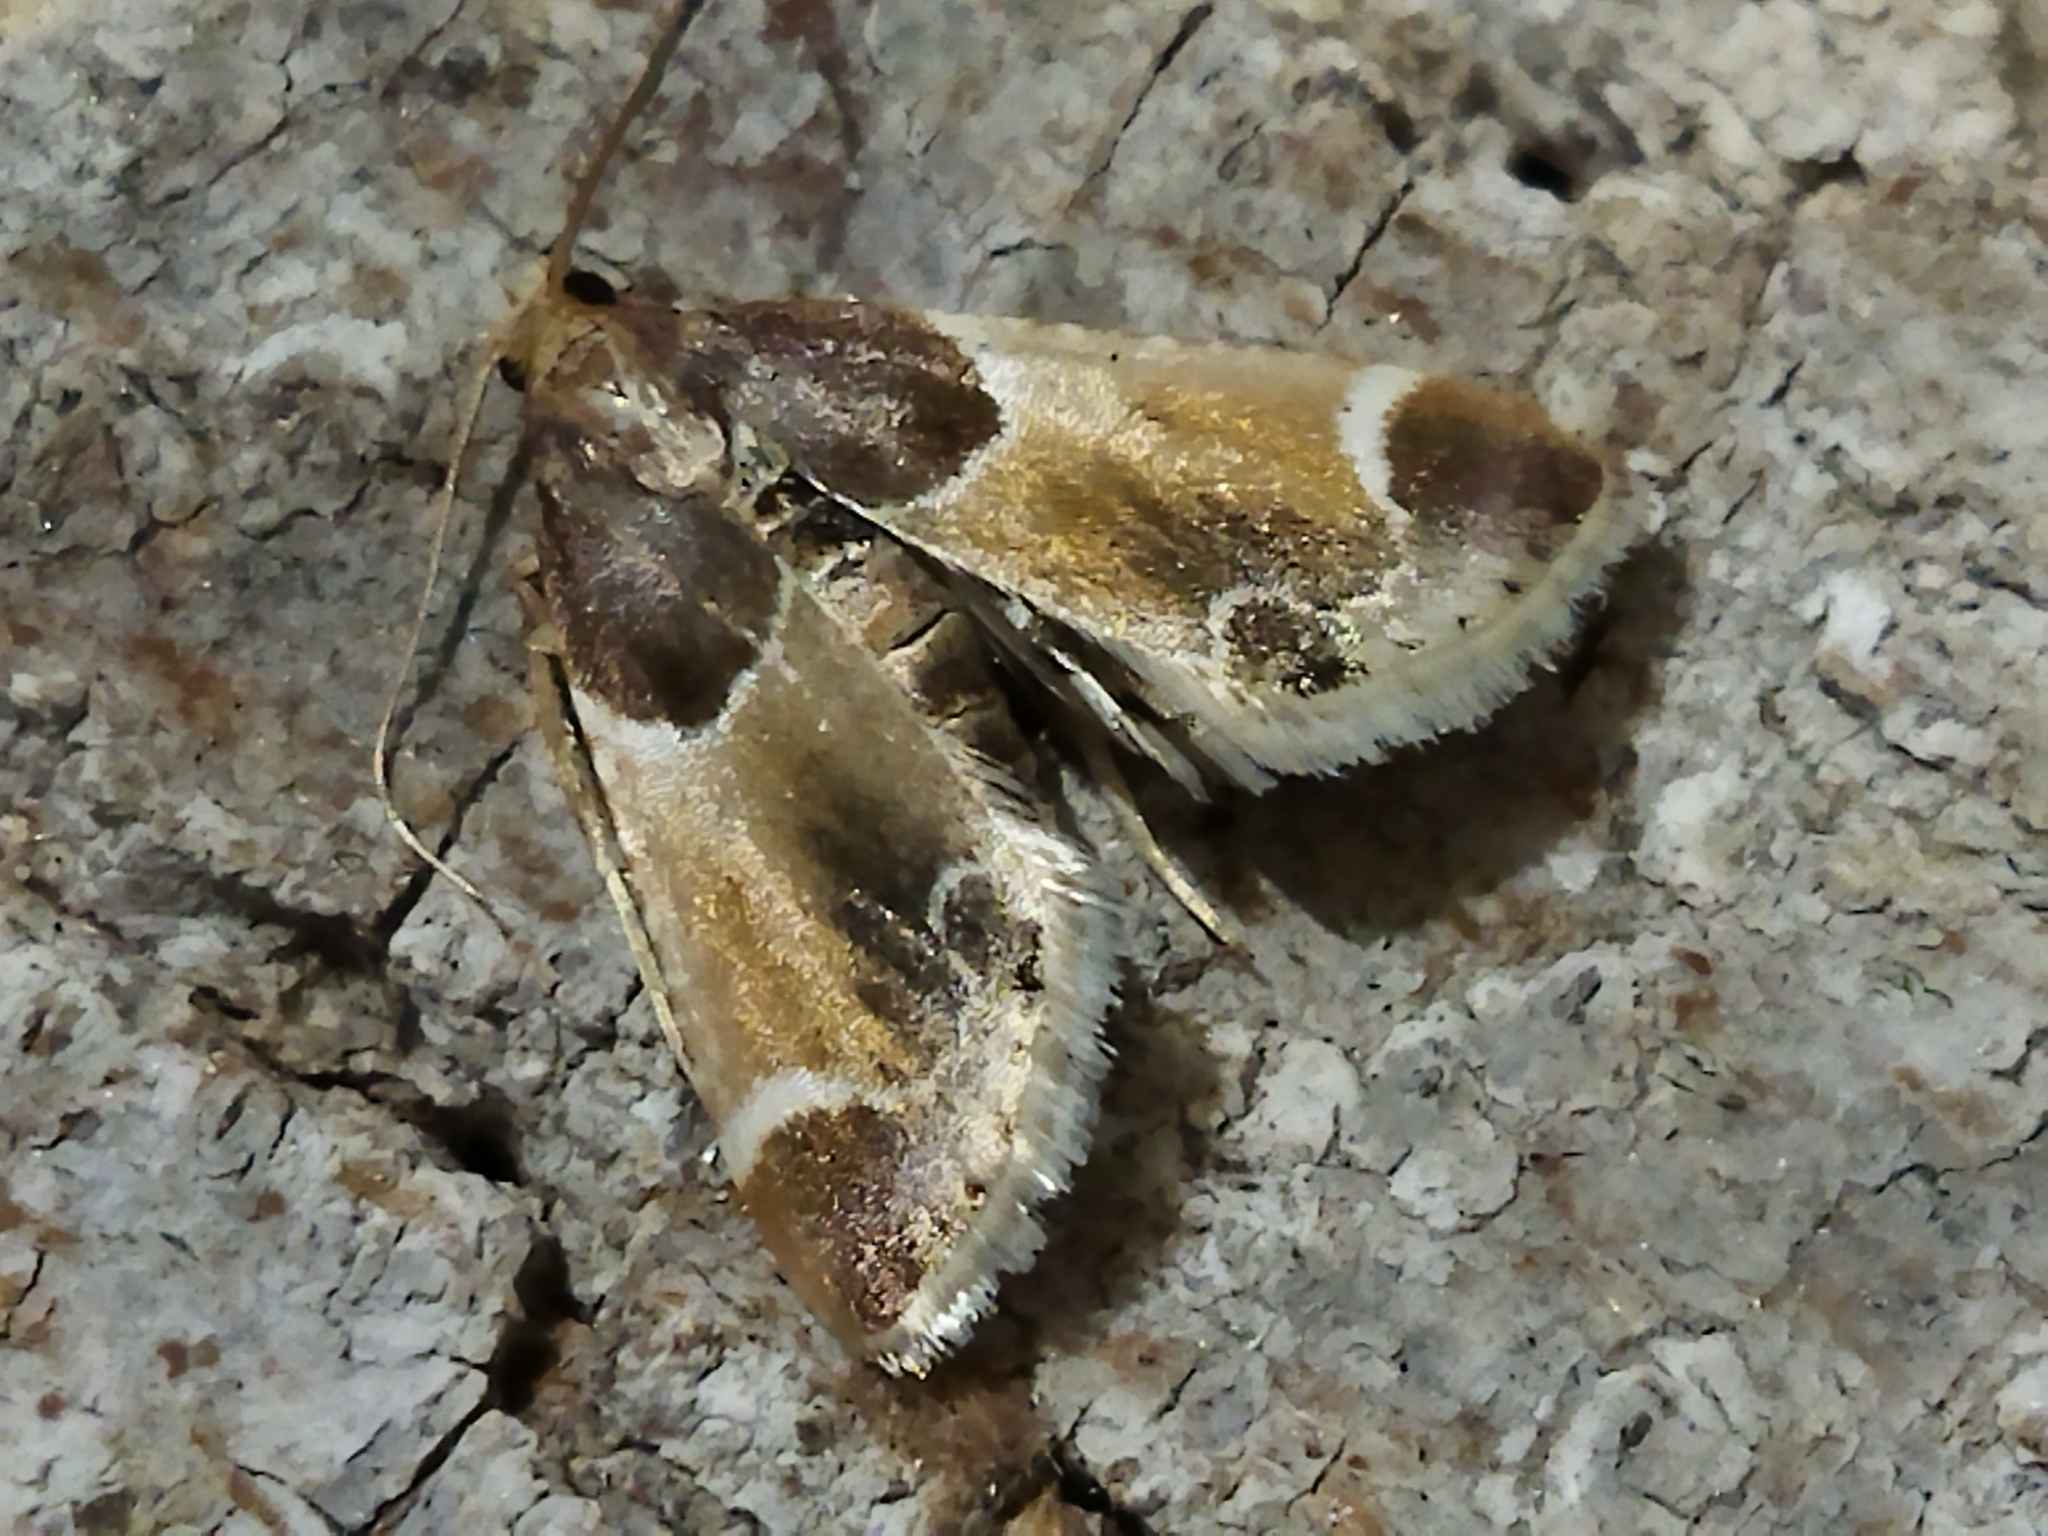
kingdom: Animalia
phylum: Arthropoda
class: Insecta
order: Lepidoptera
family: Pyralidae
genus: Pyralis
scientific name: Pyralis farinalis
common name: Meal moth
